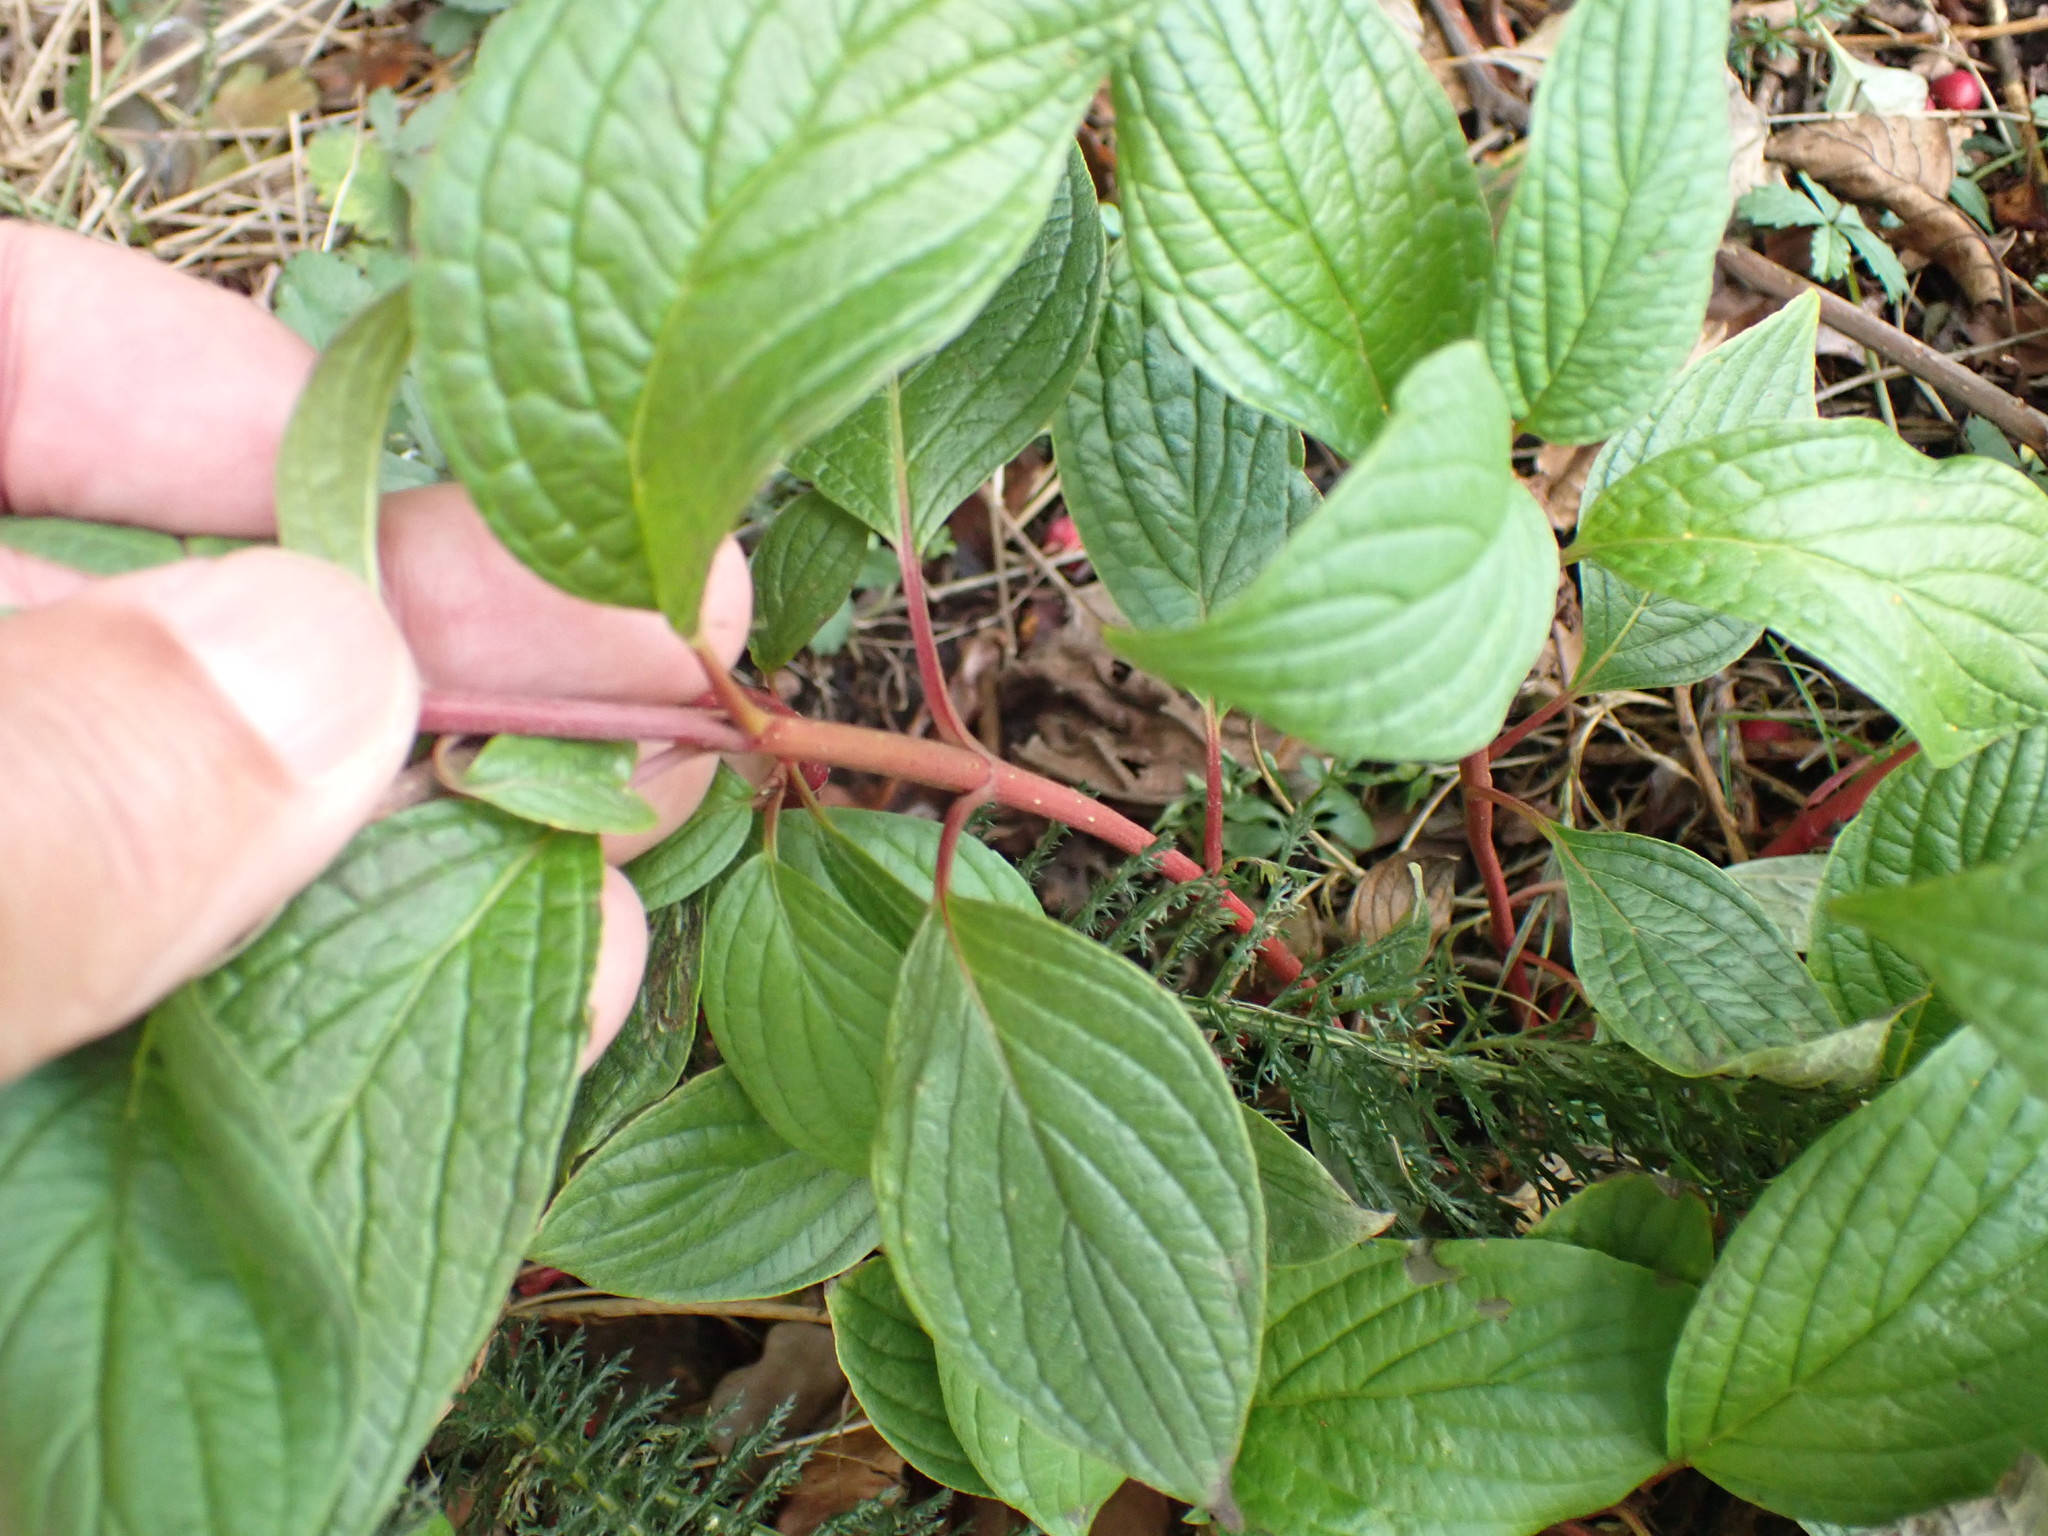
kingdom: Plantae
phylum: Tracheophyta
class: Magnoliopsida
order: Cornales
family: Cornaceae
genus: Cornus
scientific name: Cornus alba
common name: White dogwood
